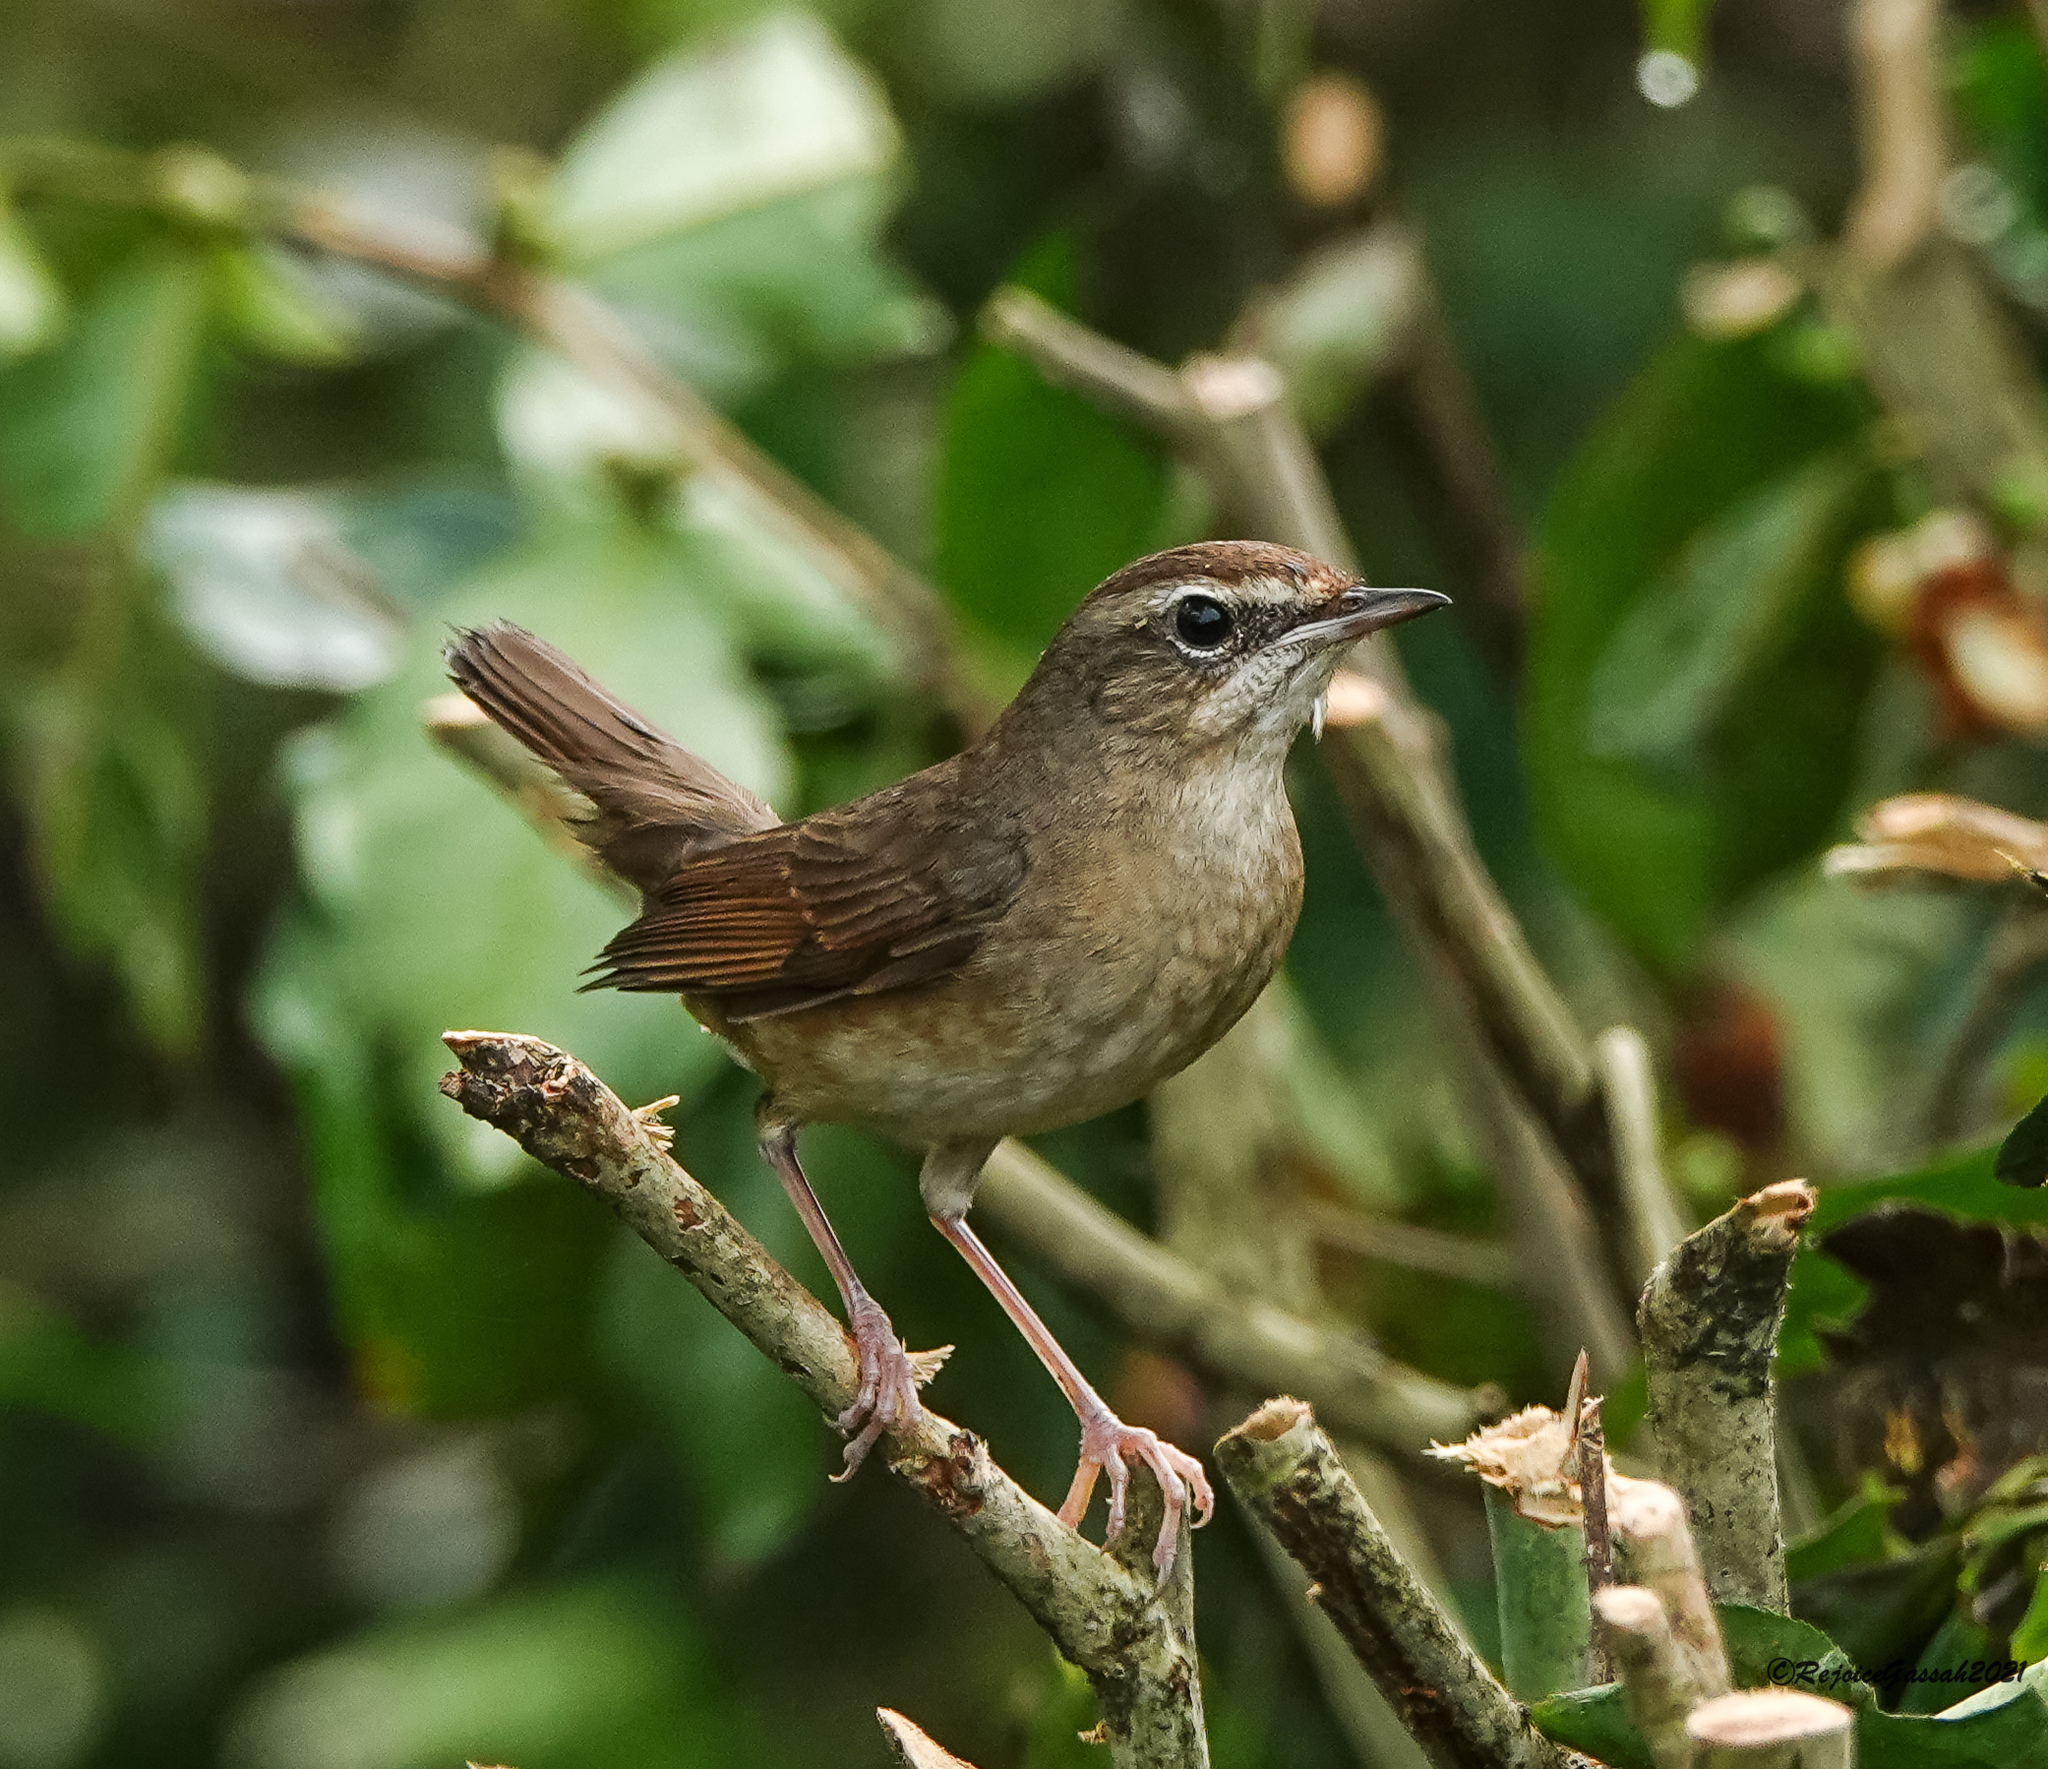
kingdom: Animalia
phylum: Chordata
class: Aves
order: Passeriformes
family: Muscicapidae
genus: Luscinia
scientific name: Luscinia calliope
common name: Siberian rubythroat
